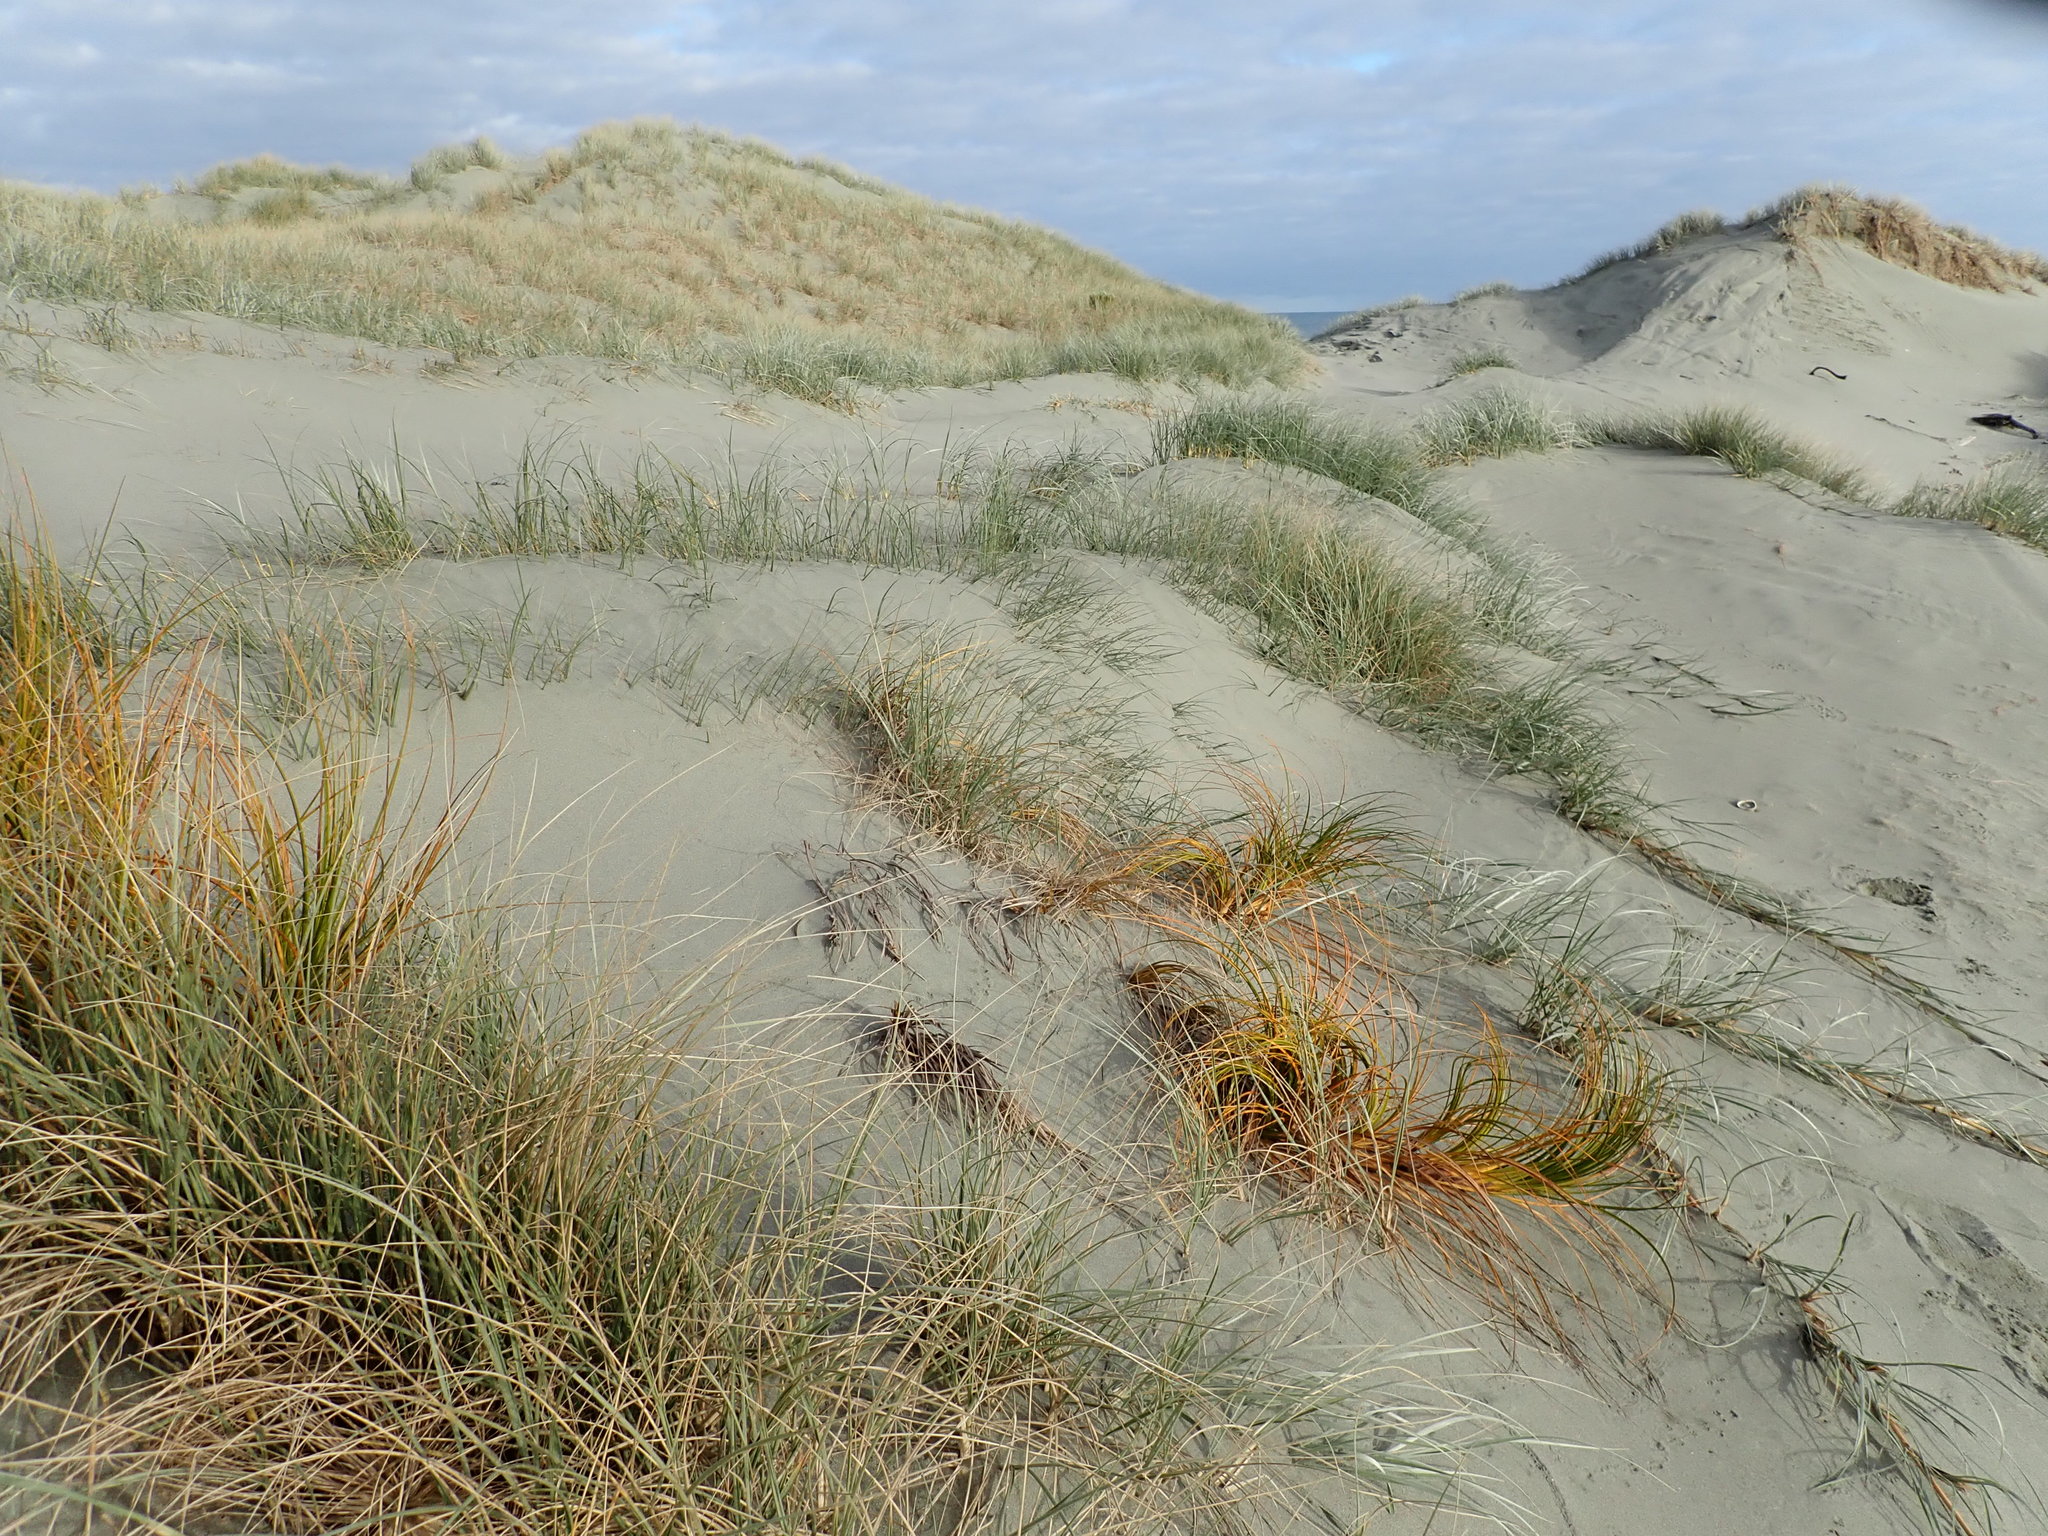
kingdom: Plantae
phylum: Tracheophyta
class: Liliopsida
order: Poales
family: Cyperaceae
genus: Ficinia
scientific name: Ficinia spiralis
